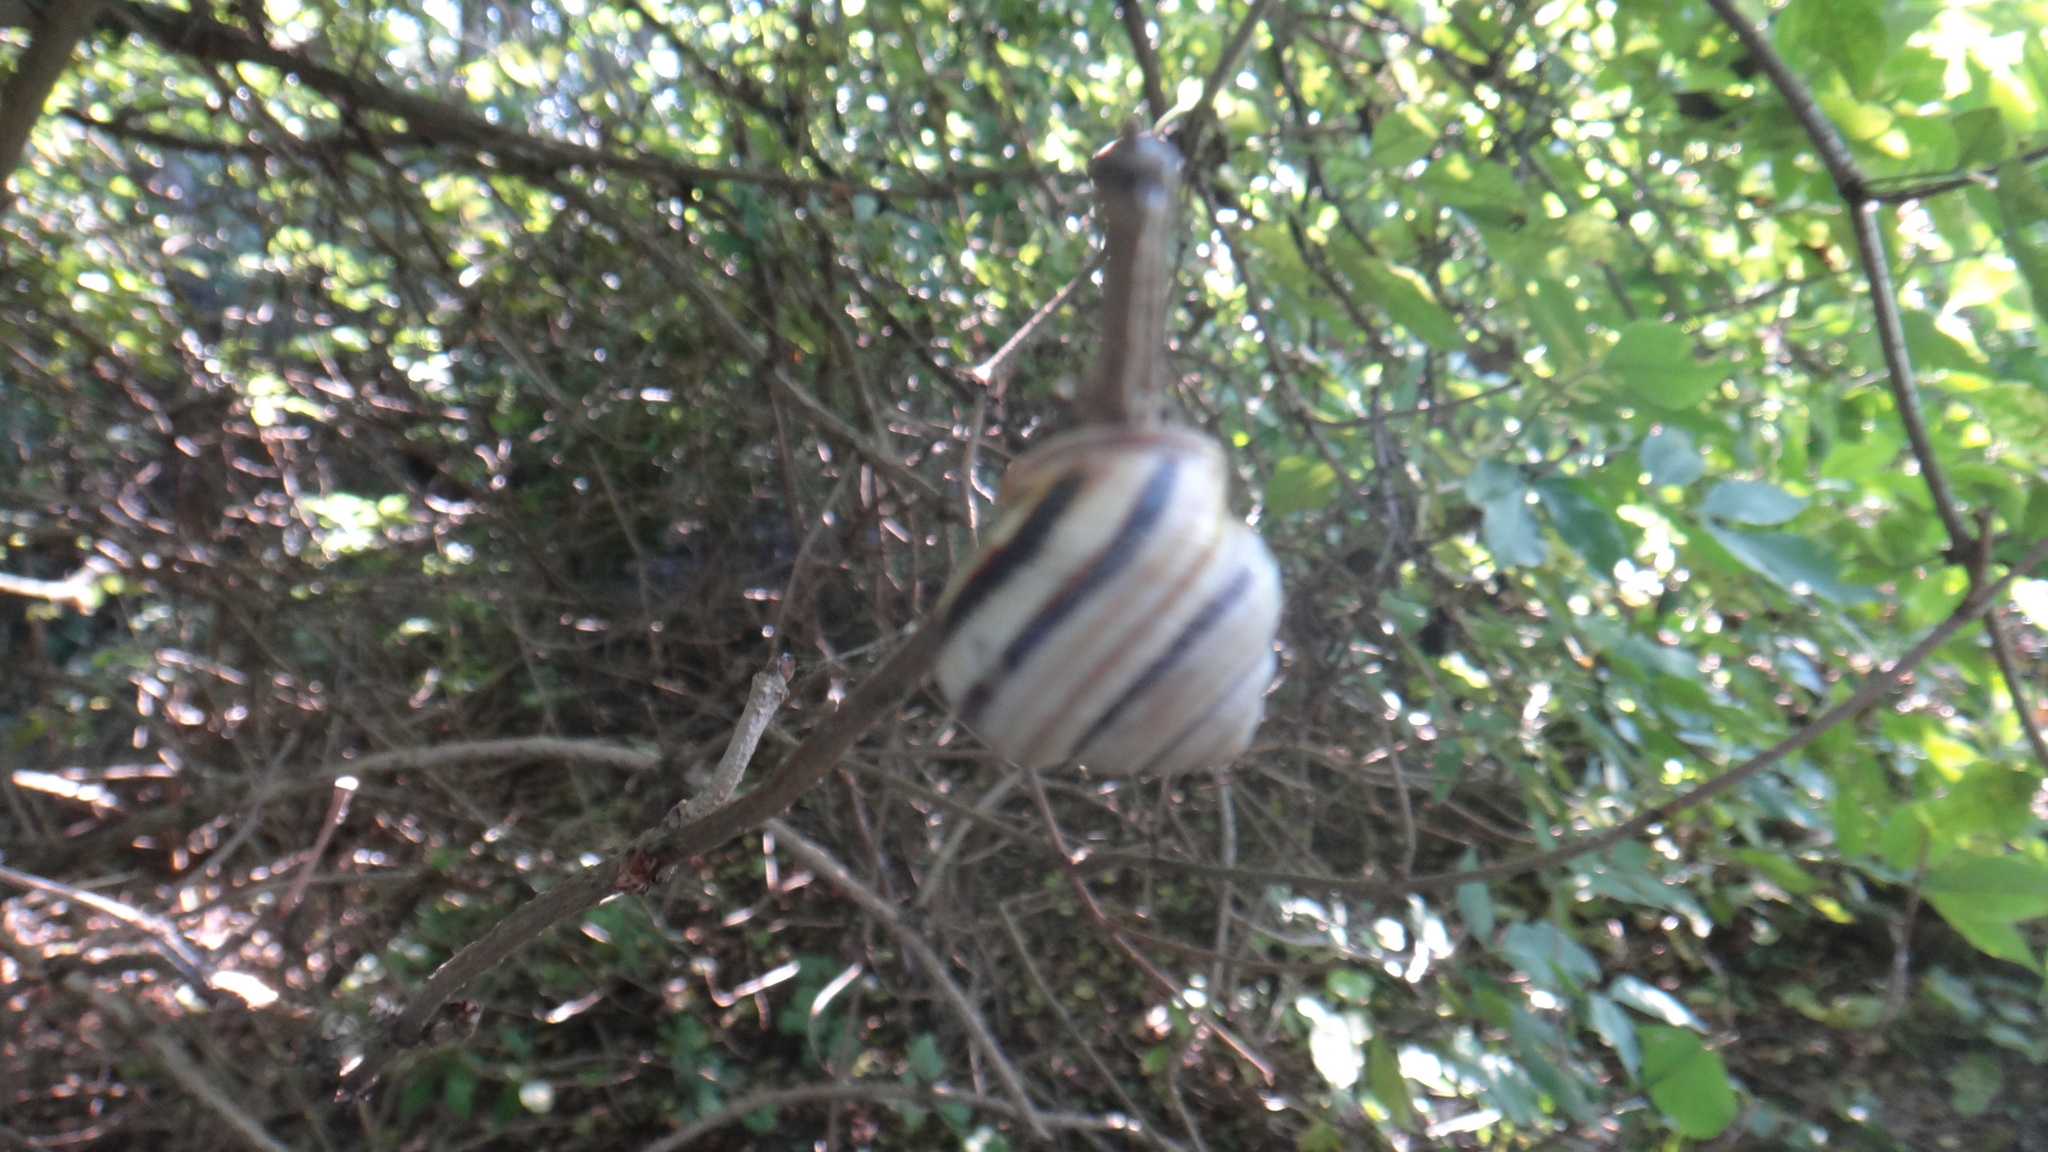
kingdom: Animalia
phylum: Mollusca
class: Gastropoda
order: Stylommatophora
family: Helicidae
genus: Caucasotachea
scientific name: Caucasotachea vindobonensis
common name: European helicid land snail
